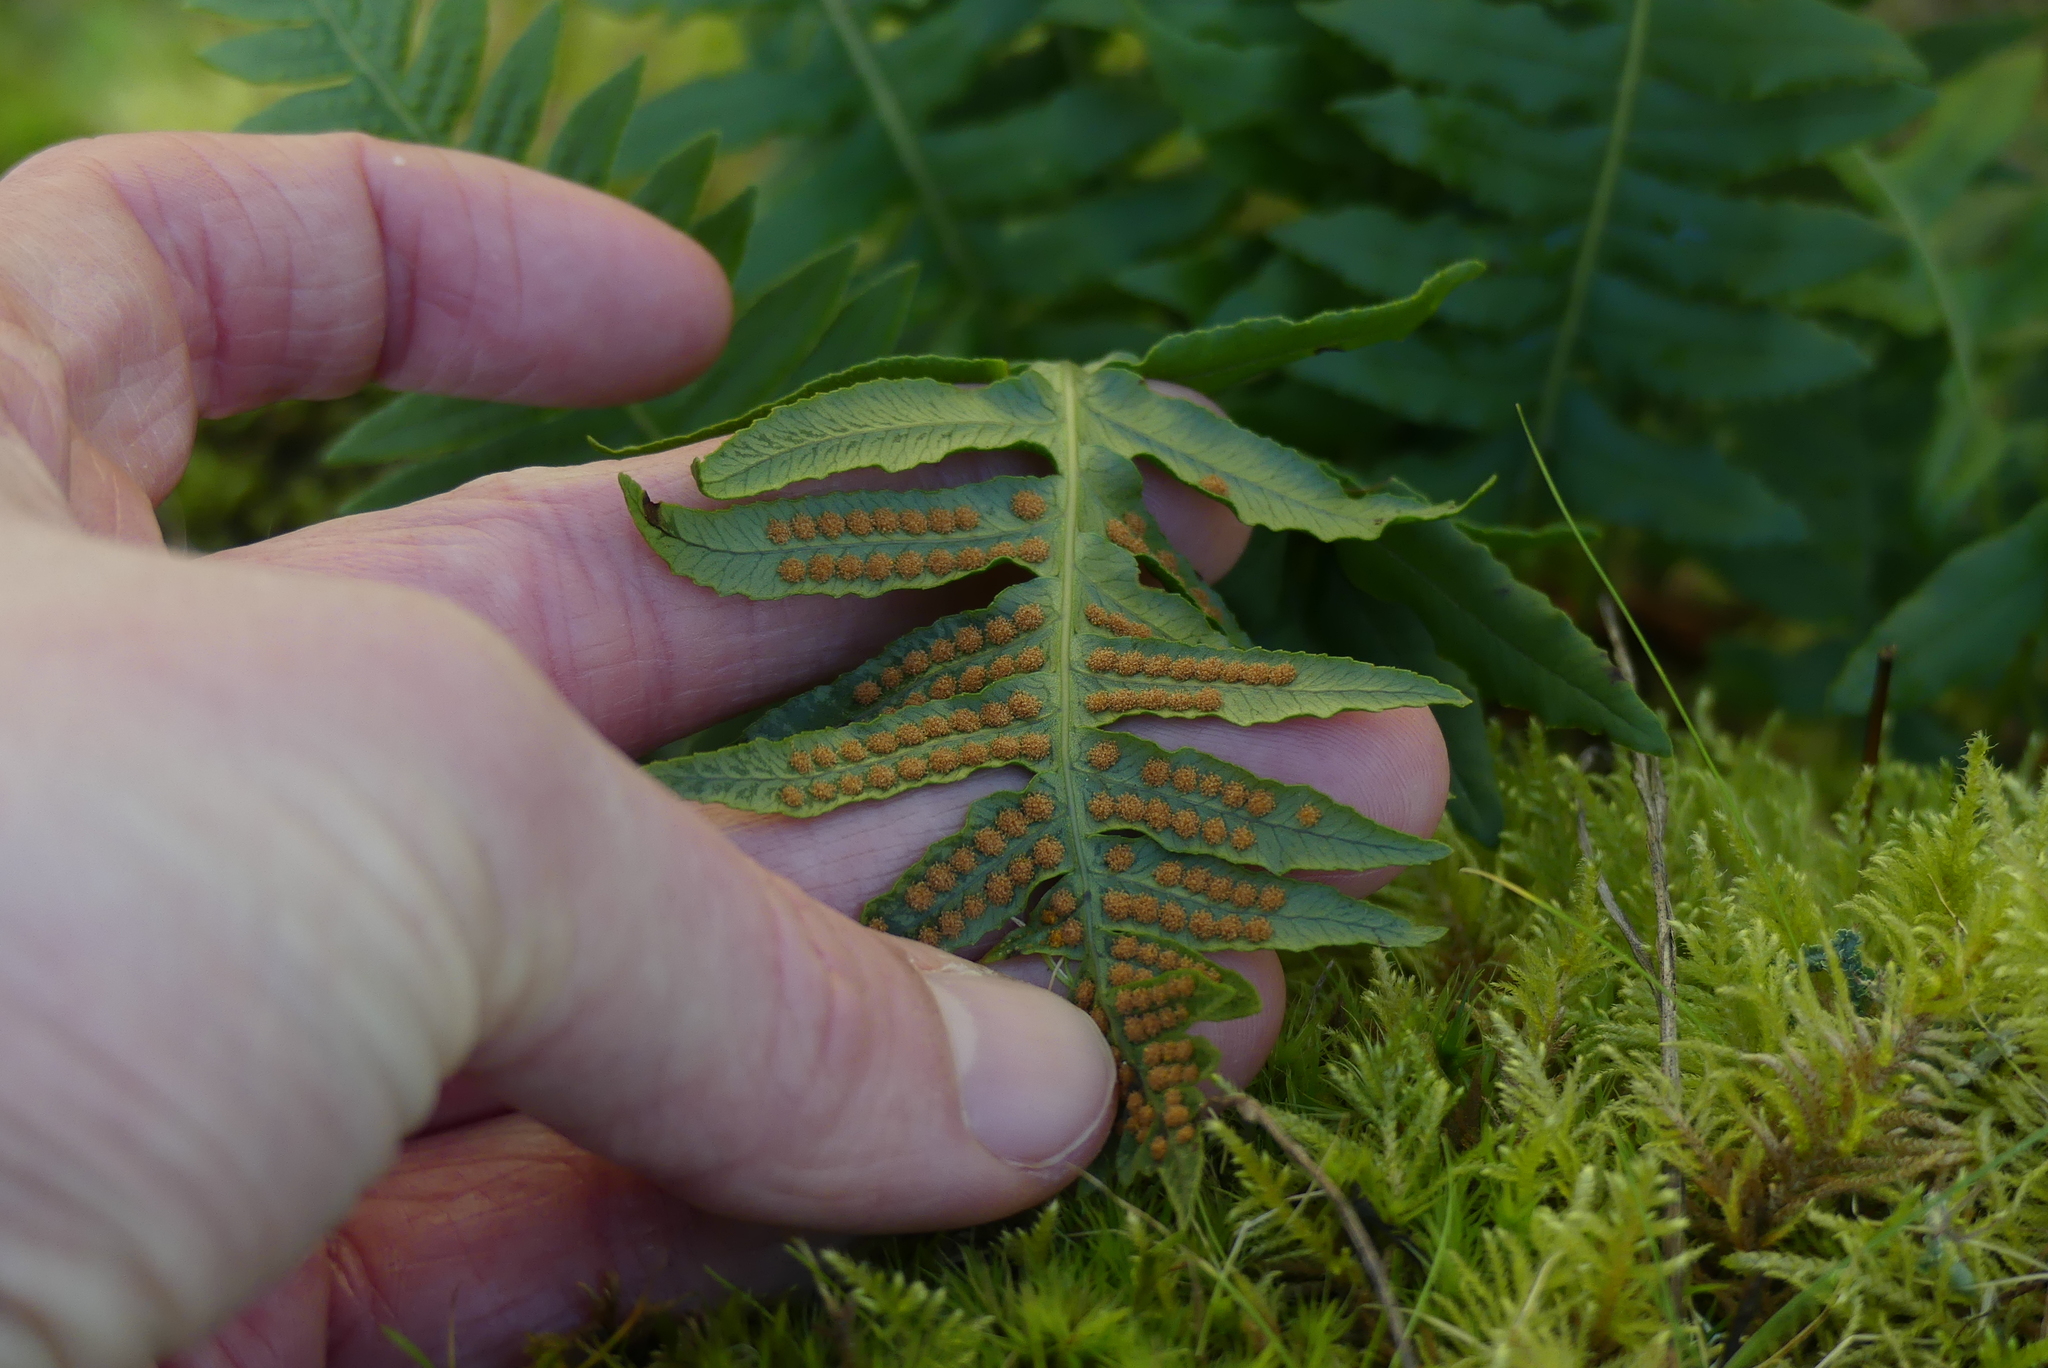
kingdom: Plantae
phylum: Tracheophyta
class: Polypodiopsida
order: Polypodiales
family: Polypodiaceae
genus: Polypodium
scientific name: Polypodium glycyrrhiza
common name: Licorice fern
